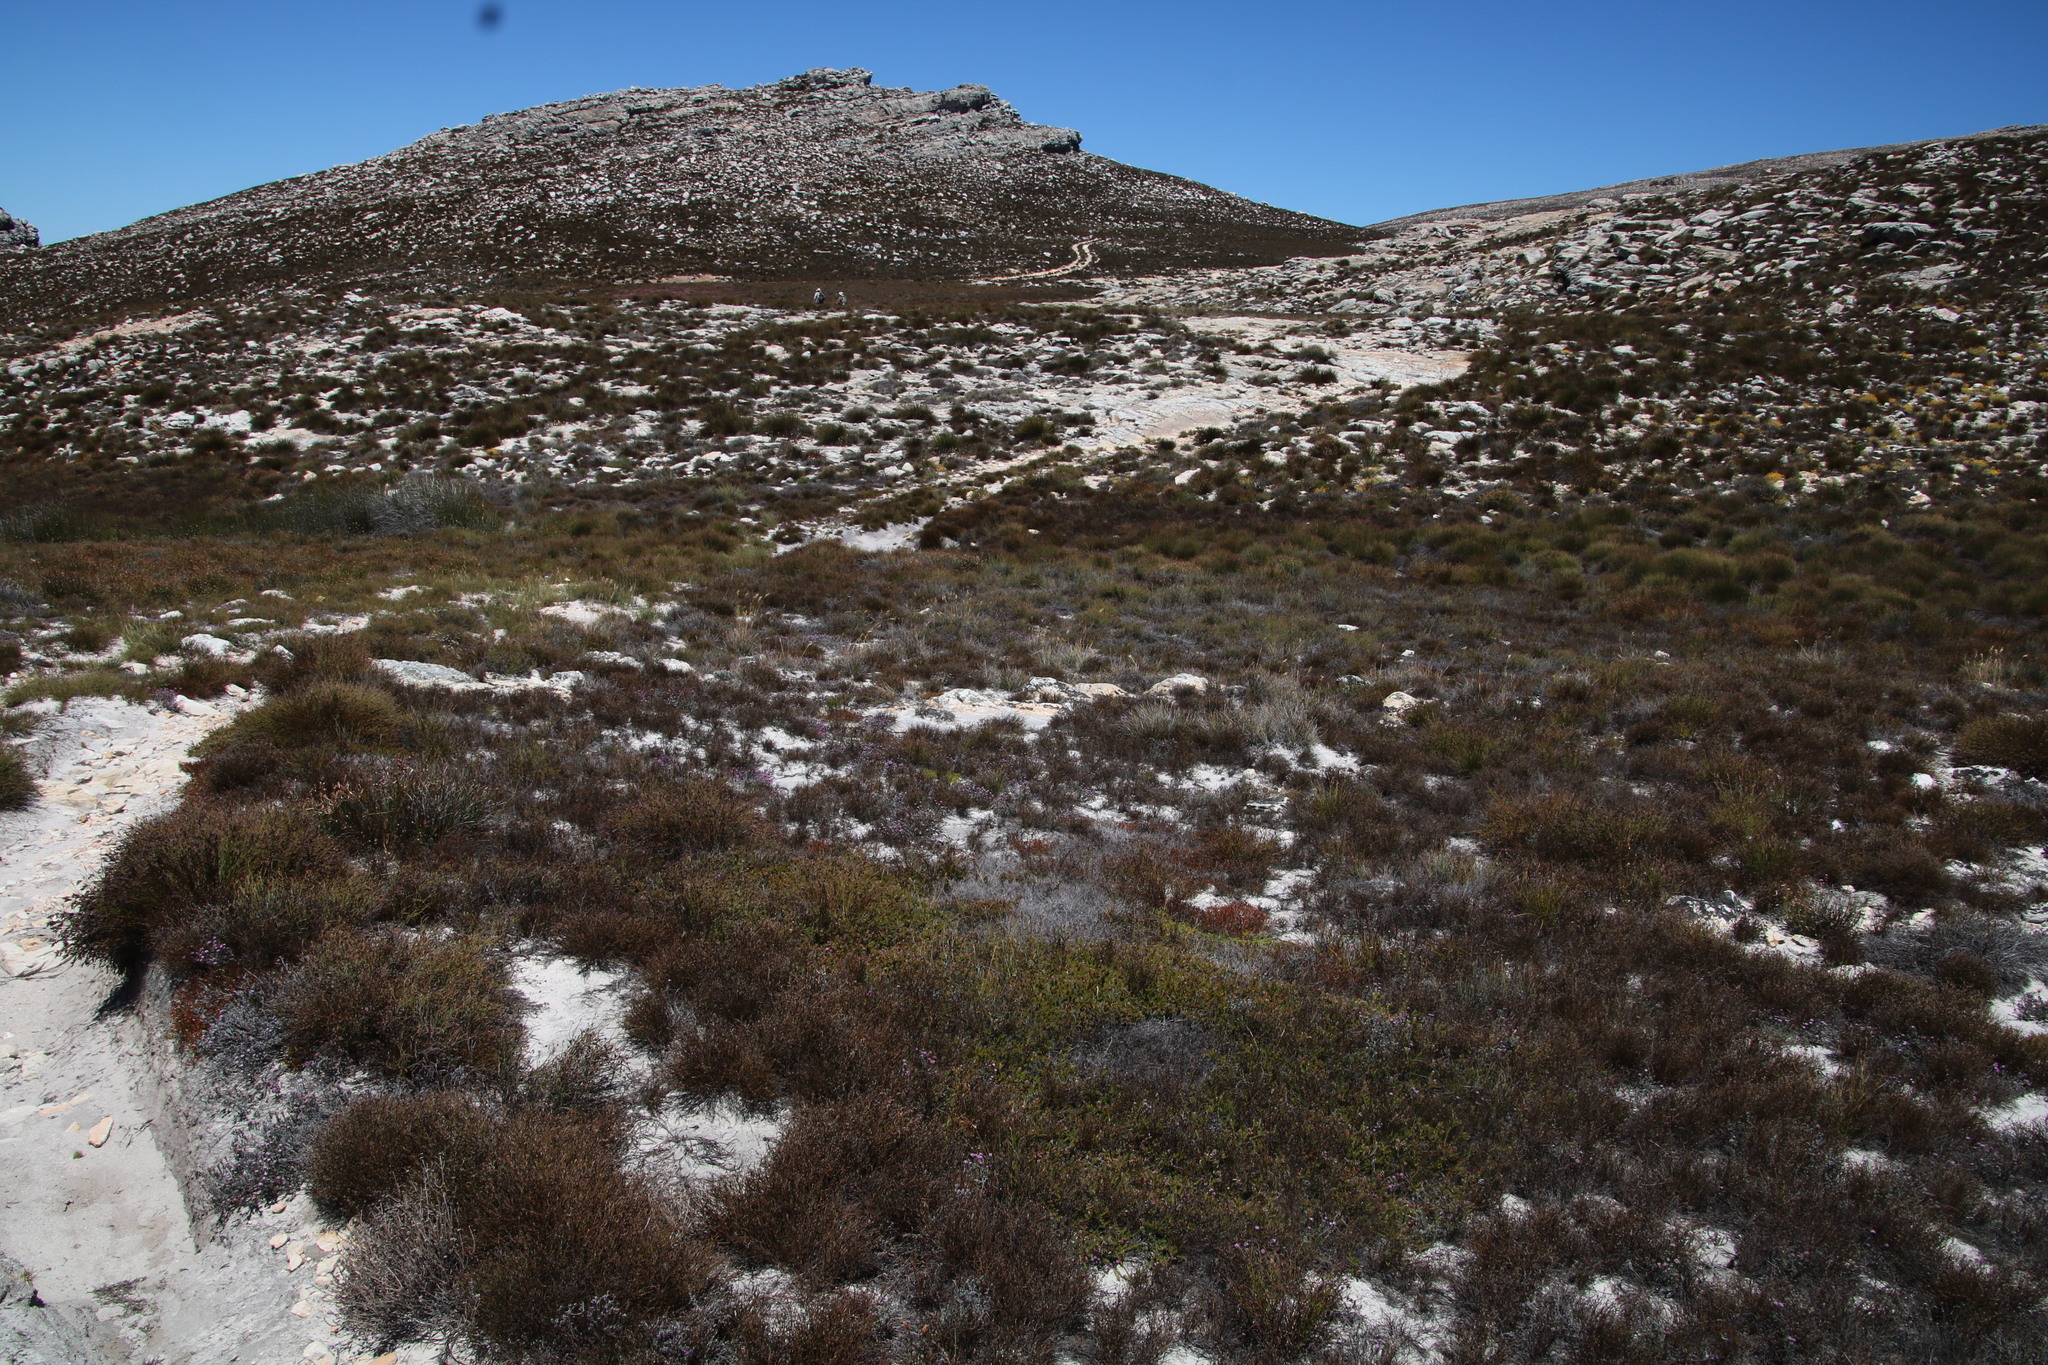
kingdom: Plantae
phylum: Tracheophyta
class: Magnoliopsida
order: Proteales
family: Proteaceae
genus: Spatalla
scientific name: Spatalla confusa
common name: Long-tube spoon
